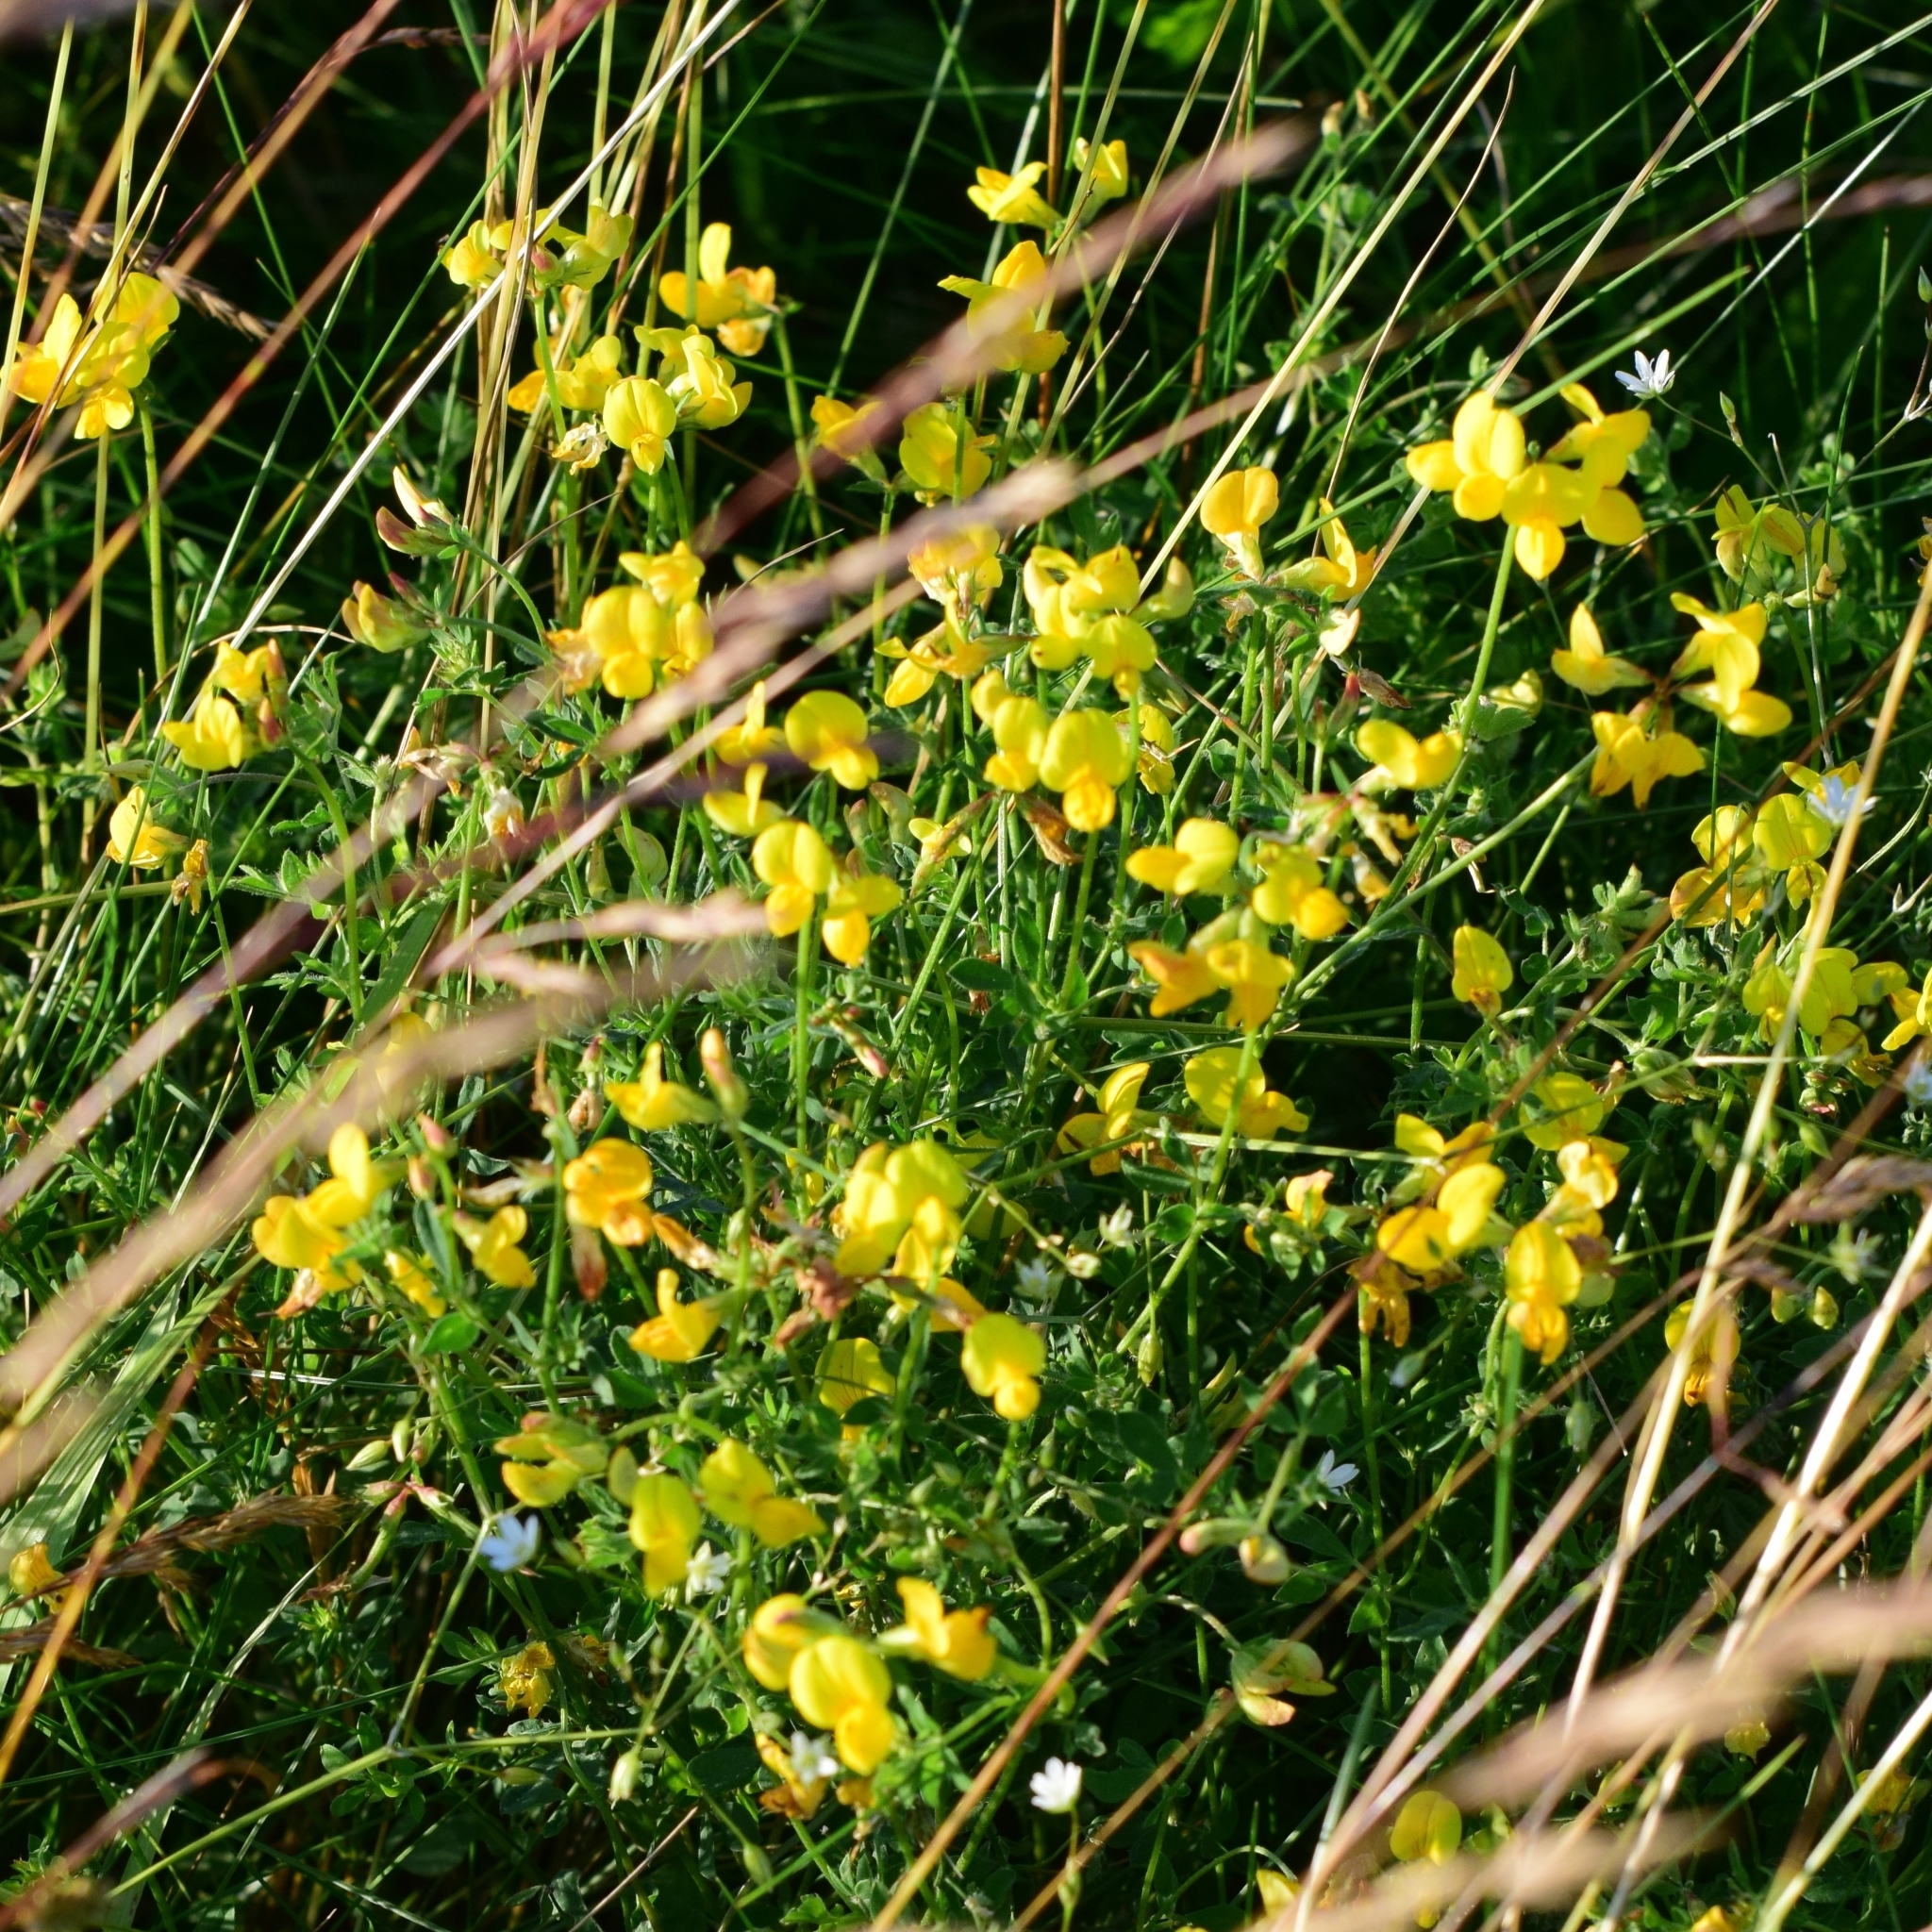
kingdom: Plantae
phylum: Tracheophyta
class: Magnoliopsida
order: Fabales
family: Fabaceae
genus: Lotus
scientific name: Lotus corniculatus
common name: Common bird's-foot-trefoil
